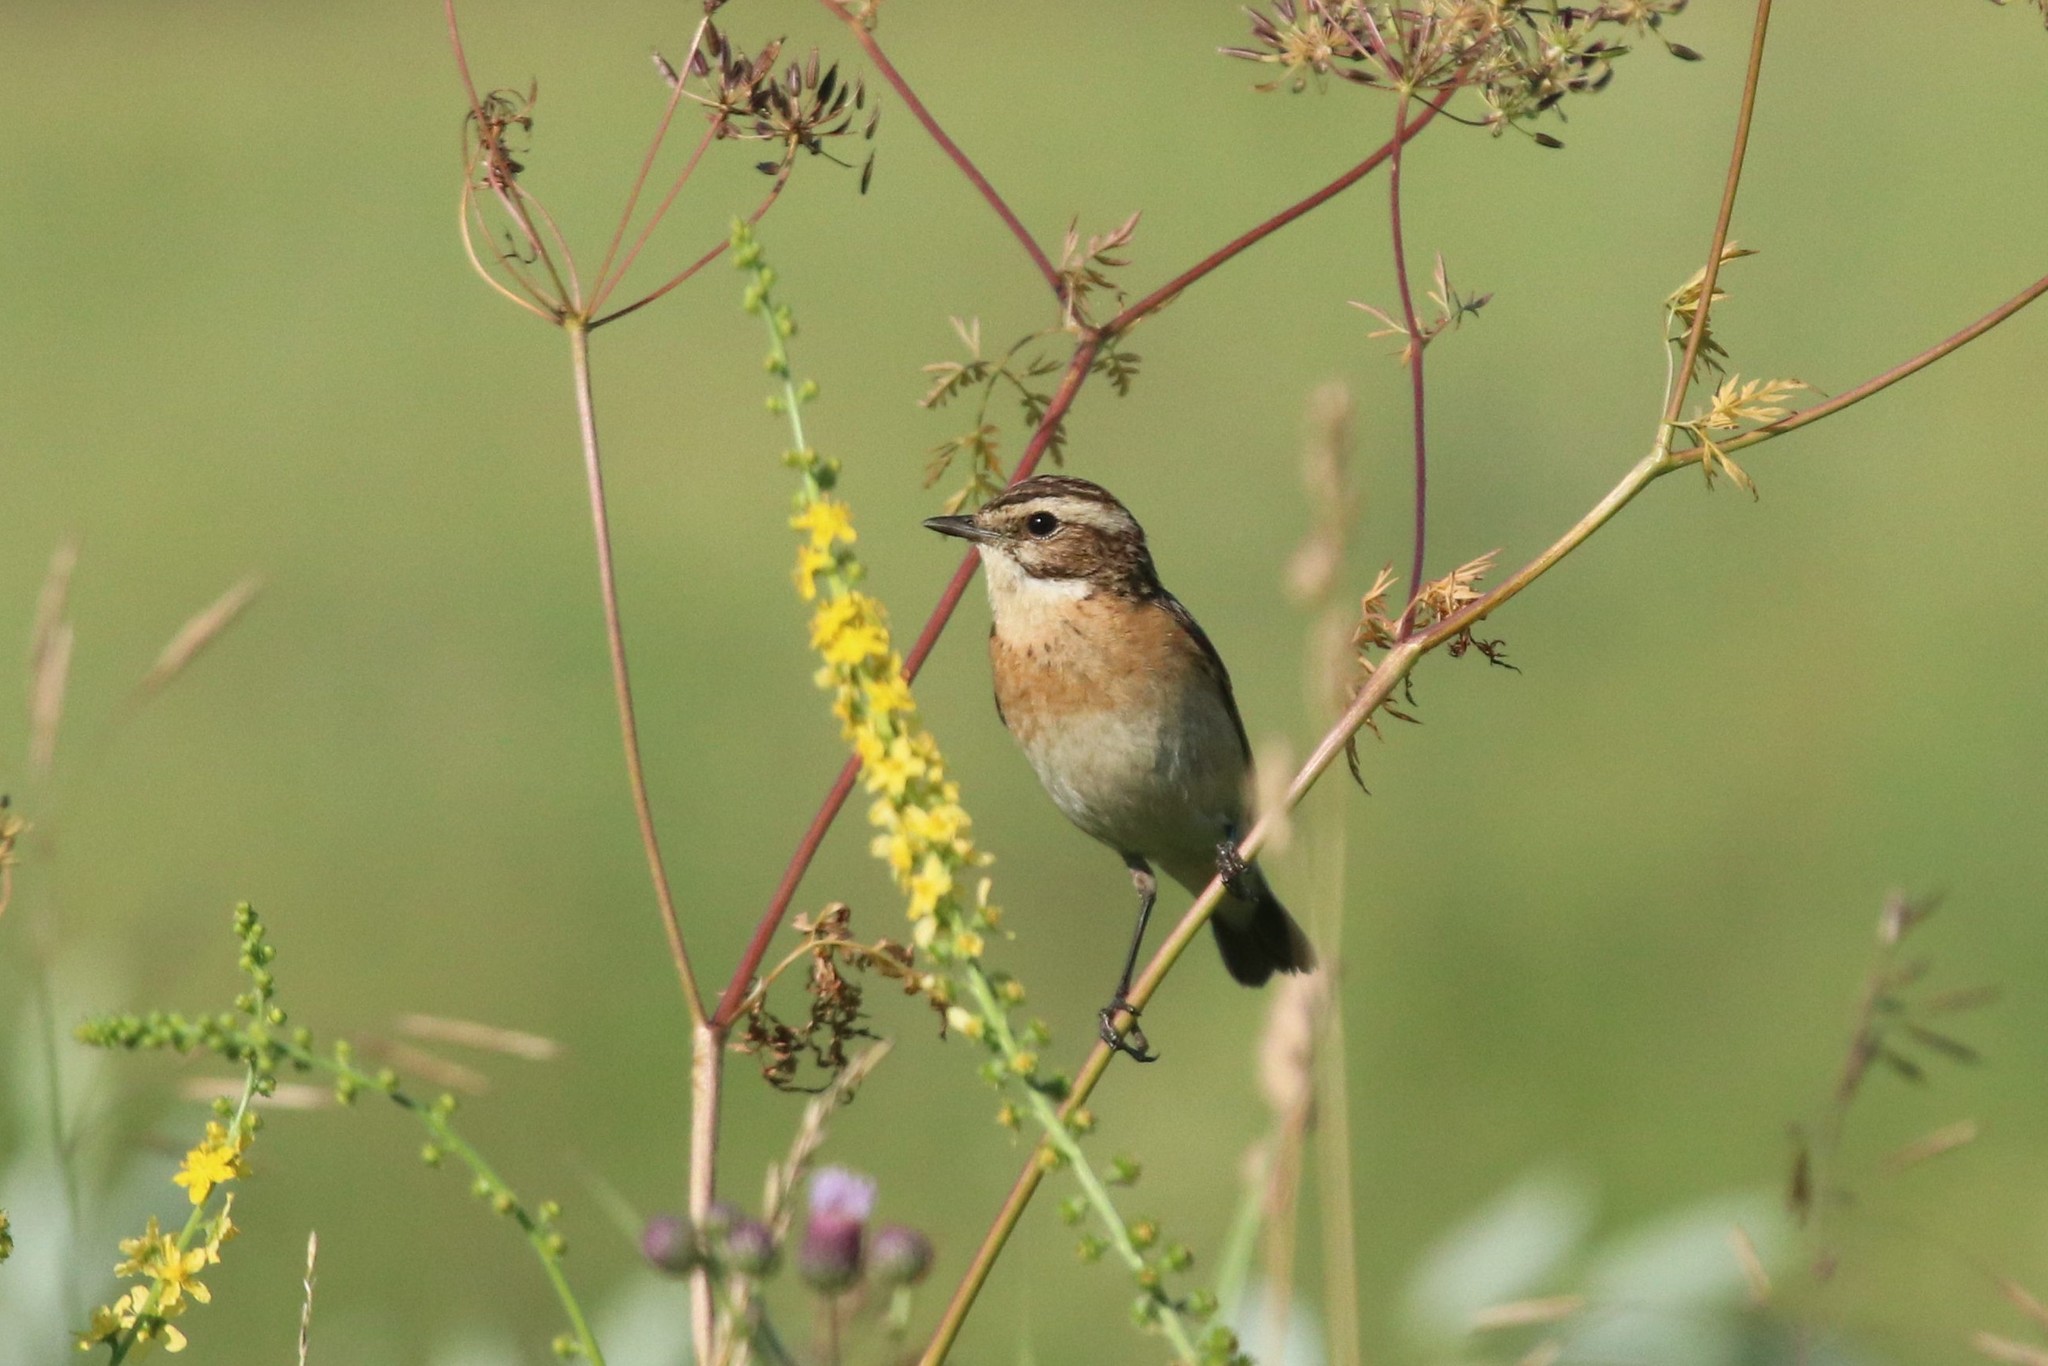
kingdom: Animalia
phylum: Chordata
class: Aves
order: Passeriformes
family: Muscicapidae
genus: Saxicola
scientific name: Saxicola rubetra
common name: Whinchat
